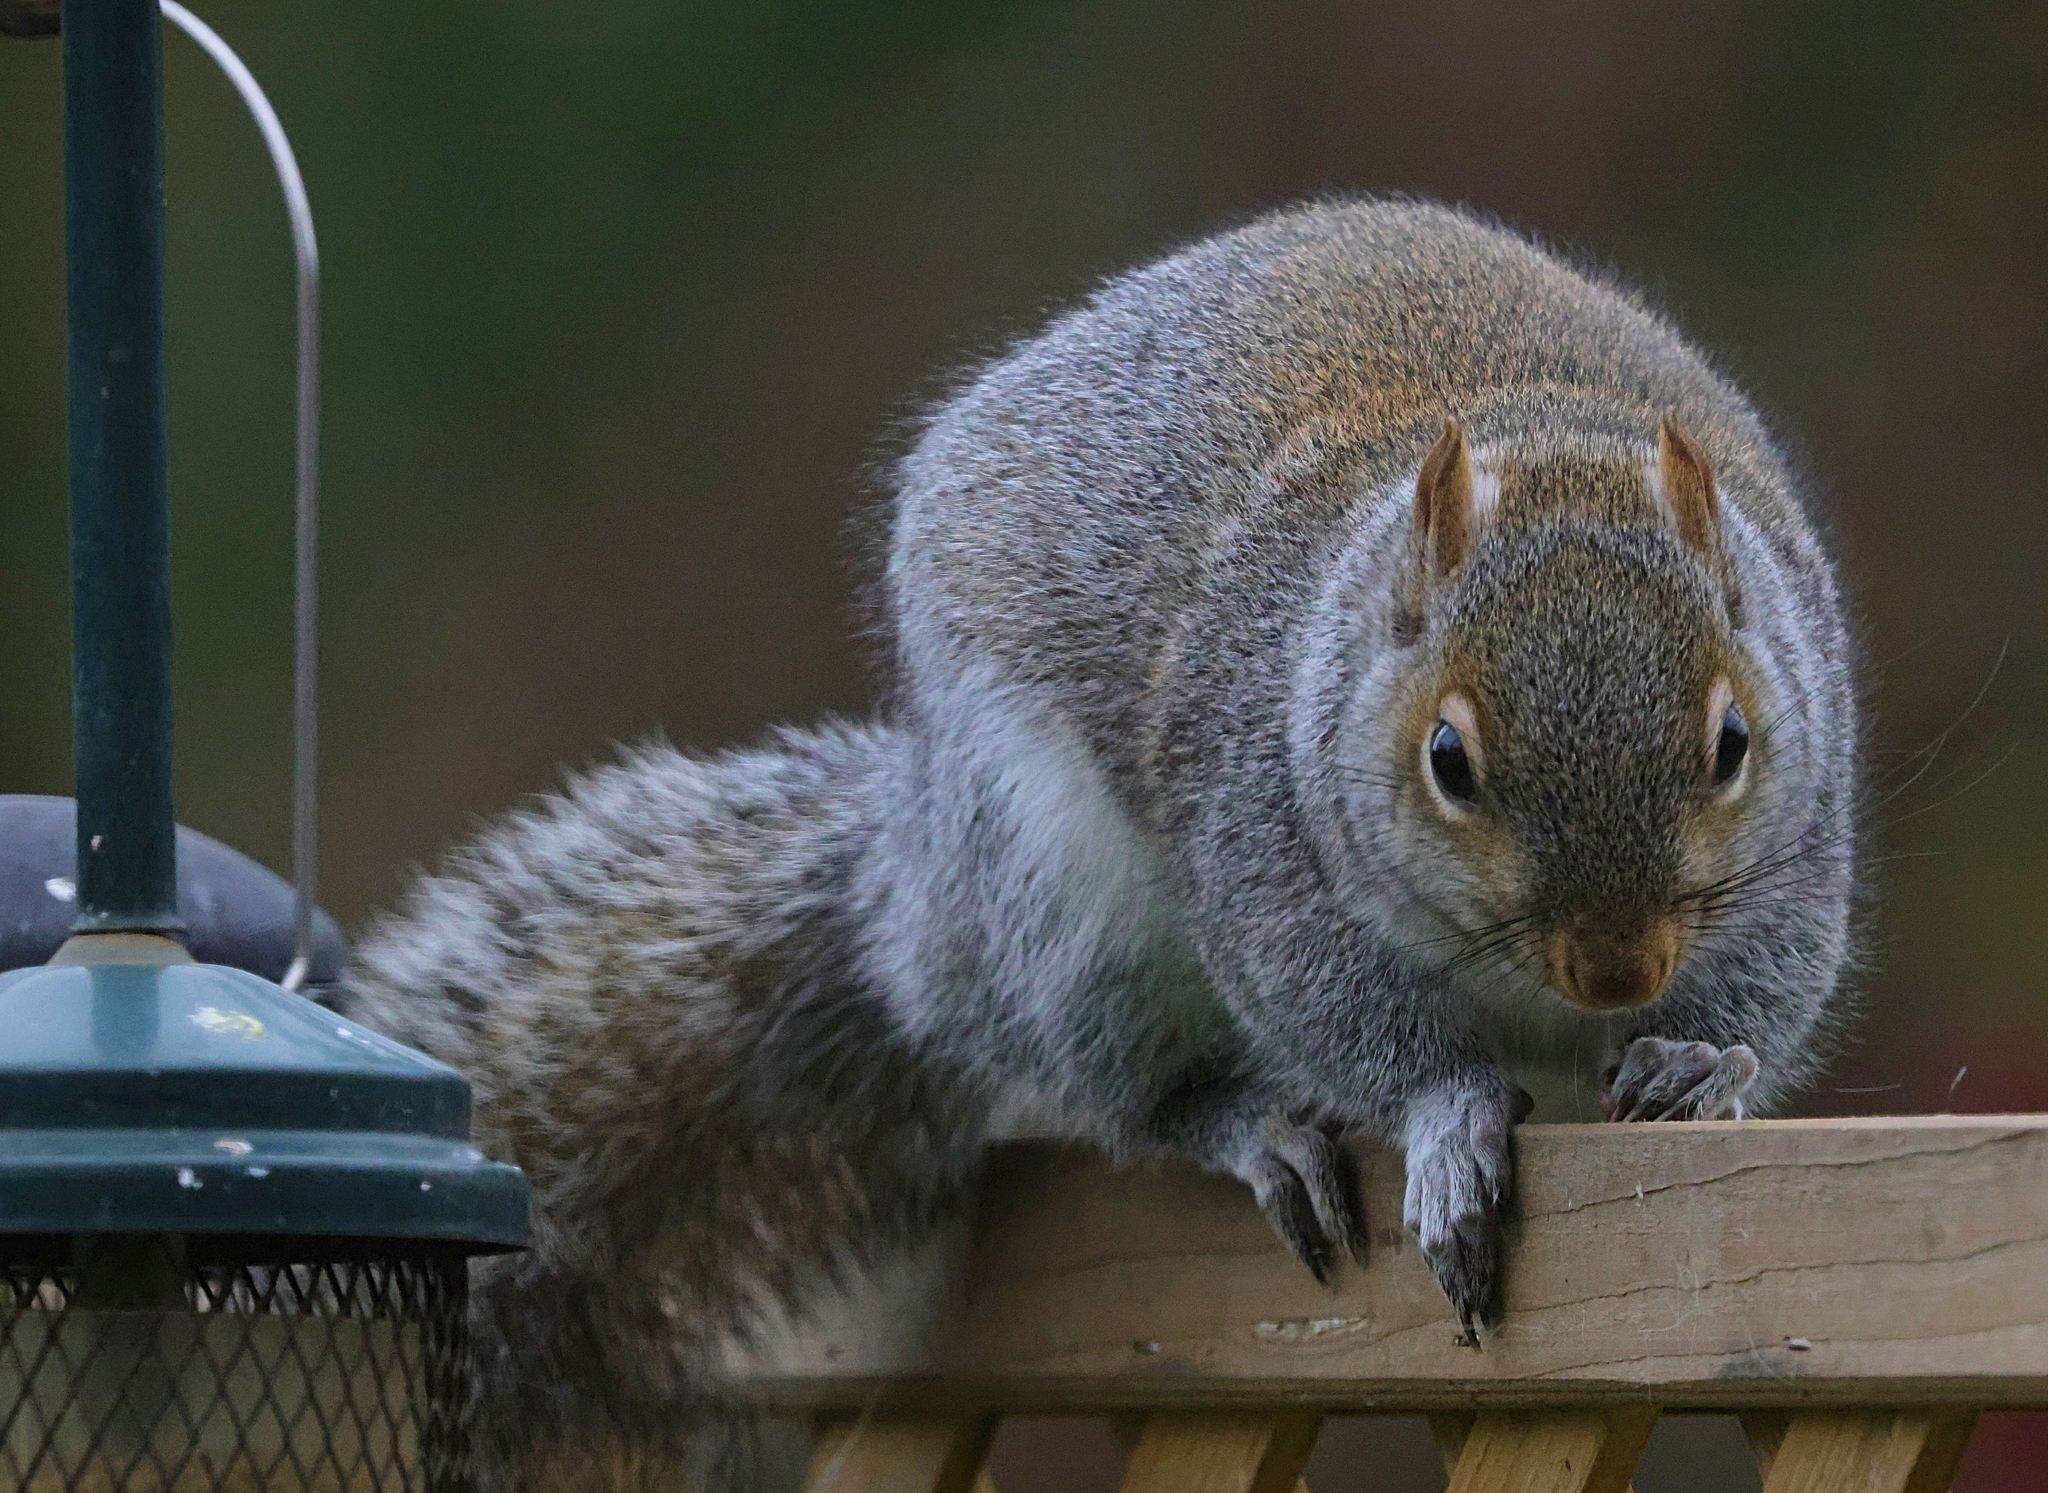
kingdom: Animalia
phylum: Chordata
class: Mammalia
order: Rodentia
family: Sciuridae
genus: Sciurus
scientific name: Sciurus carolinensis
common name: Eastern gray squirrel
